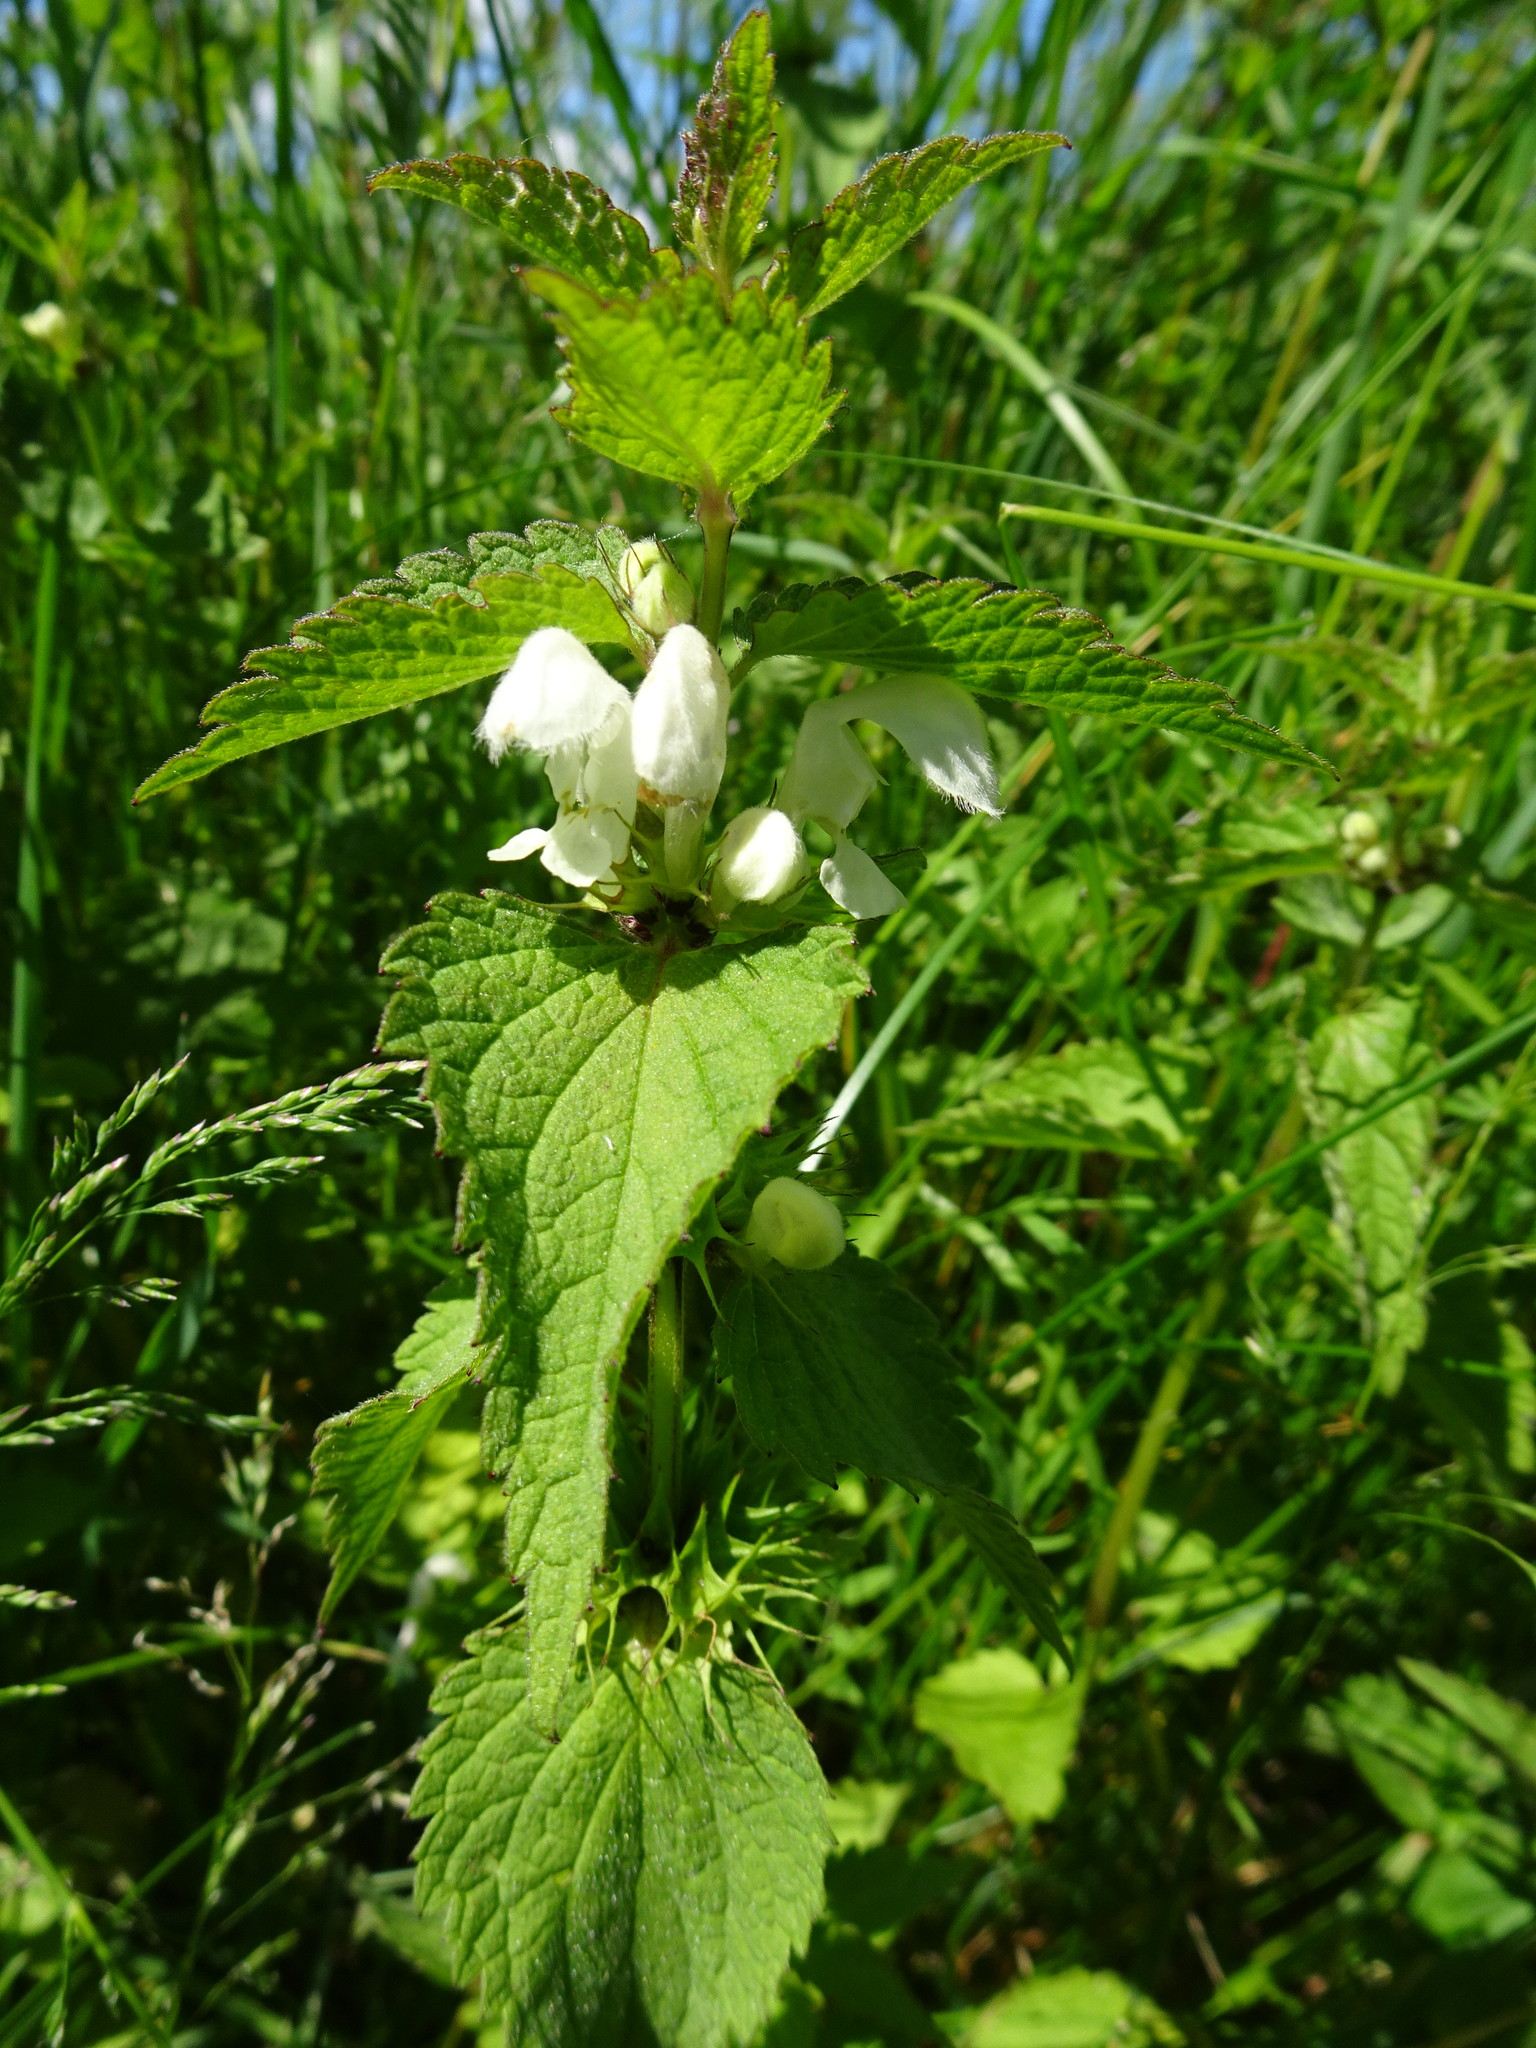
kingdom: Plantae
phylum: Tracheophyta
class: Magnoliopsida
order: Lamiales
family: Lamiaceae
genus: Lamium
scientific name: Lamium album
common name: White dead-nettle
